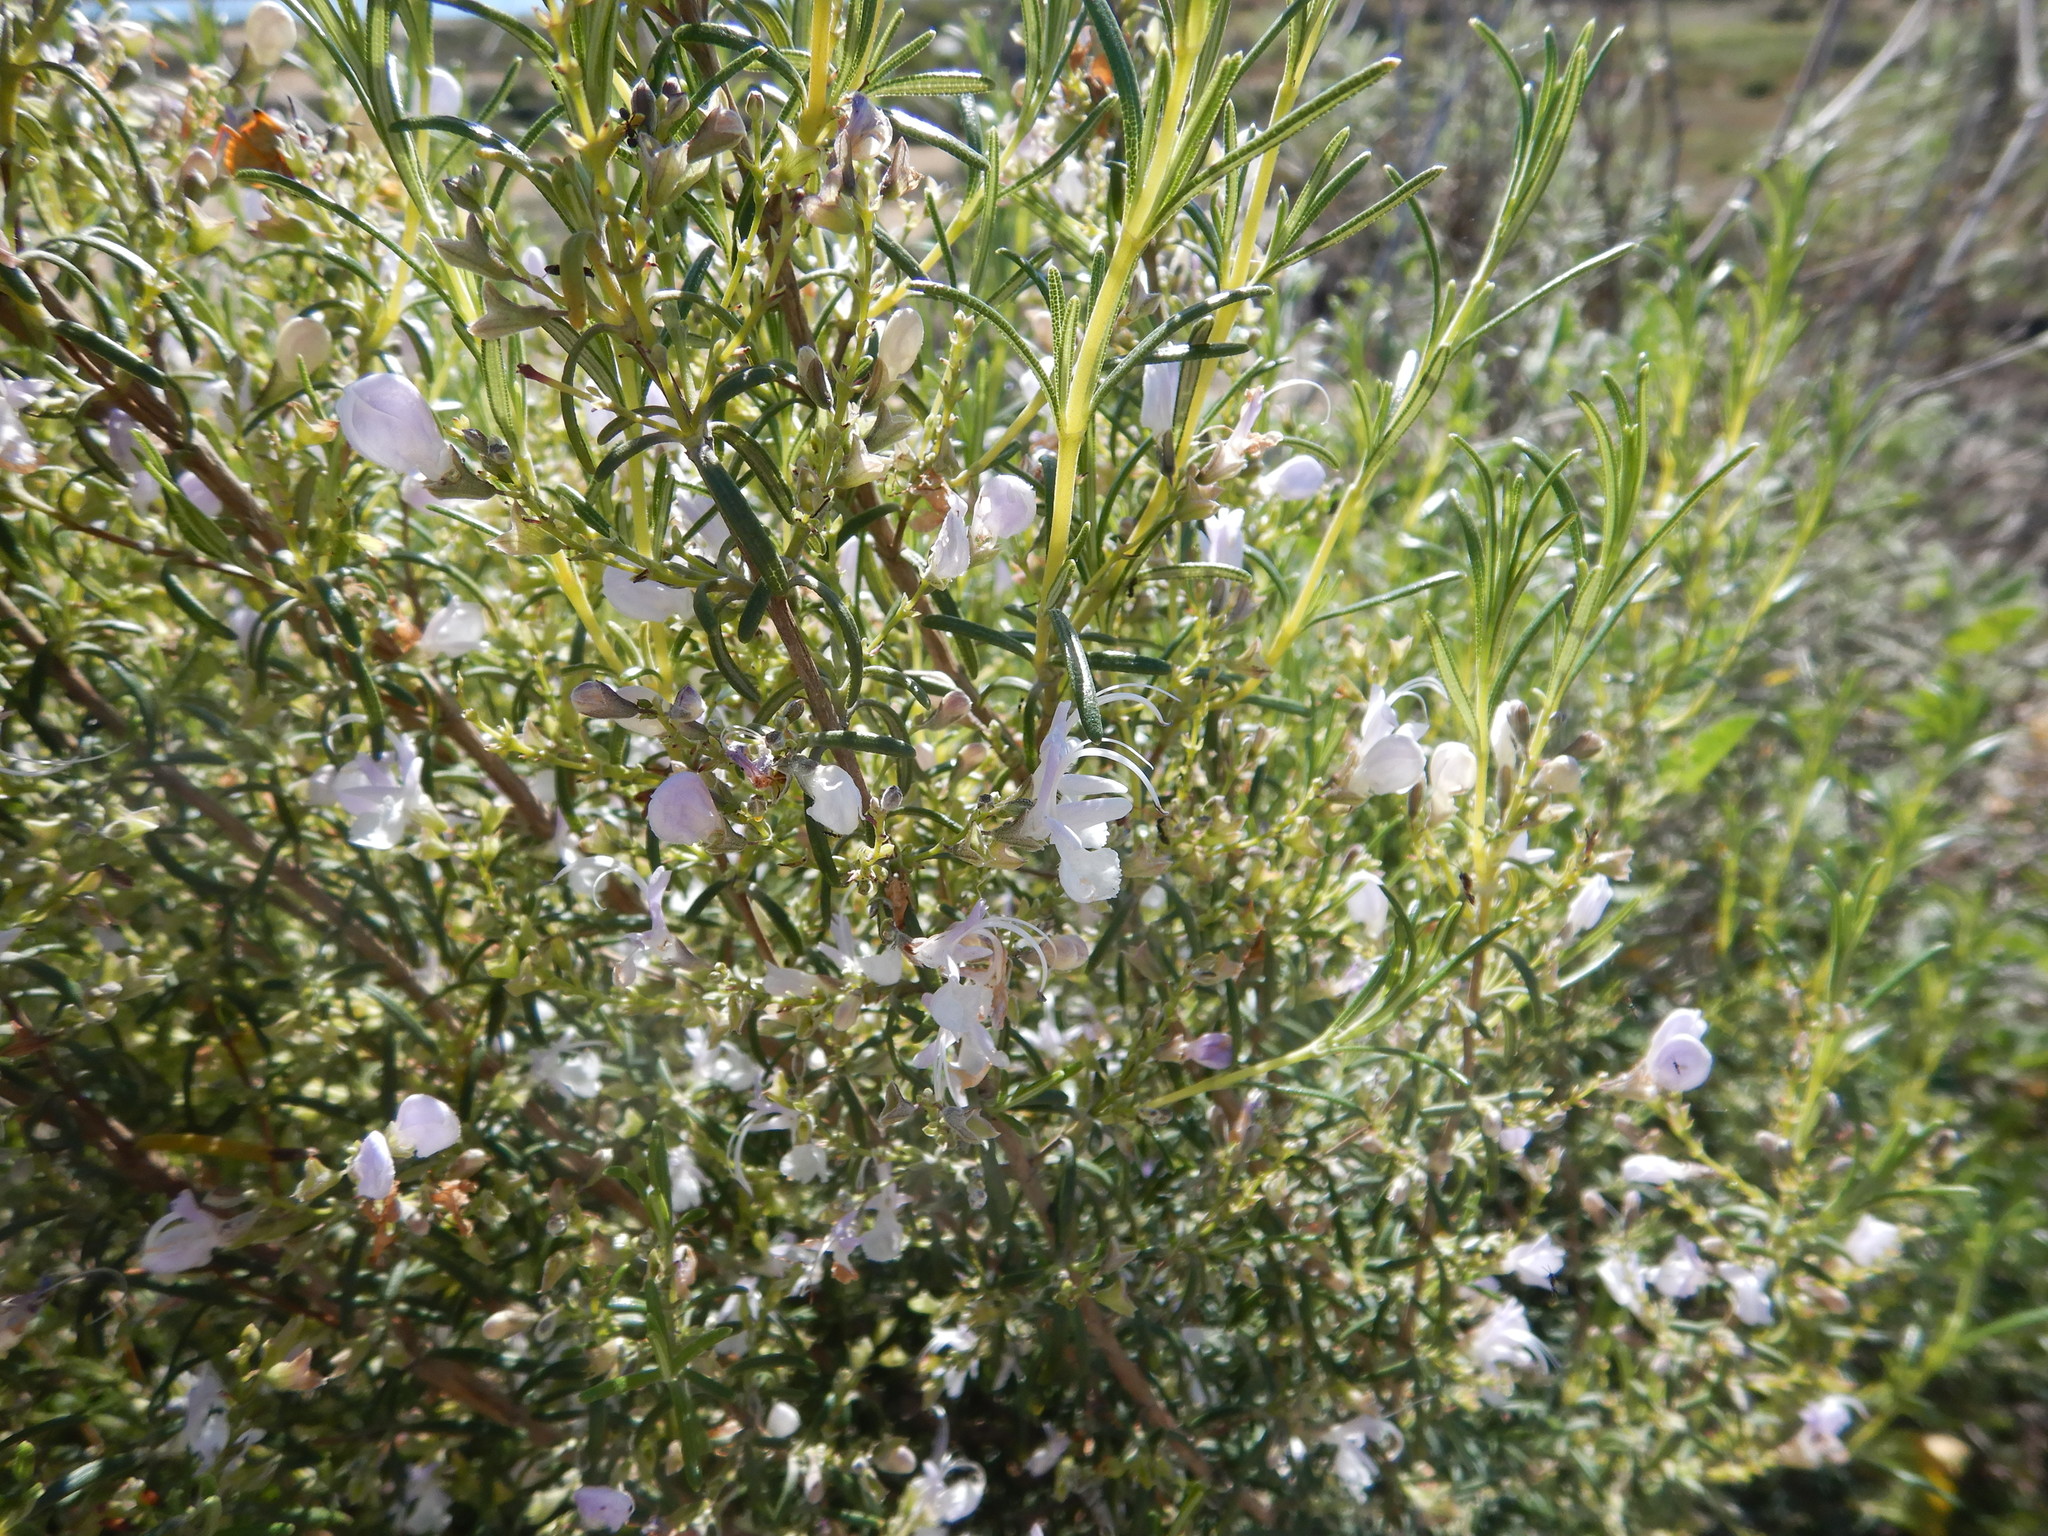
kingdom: Plantae
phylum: Tracheophyta
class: Magnoliopsida
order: Lamiales
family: Lamiaceae
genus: Salvia
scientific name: Salvia rosmarinus
